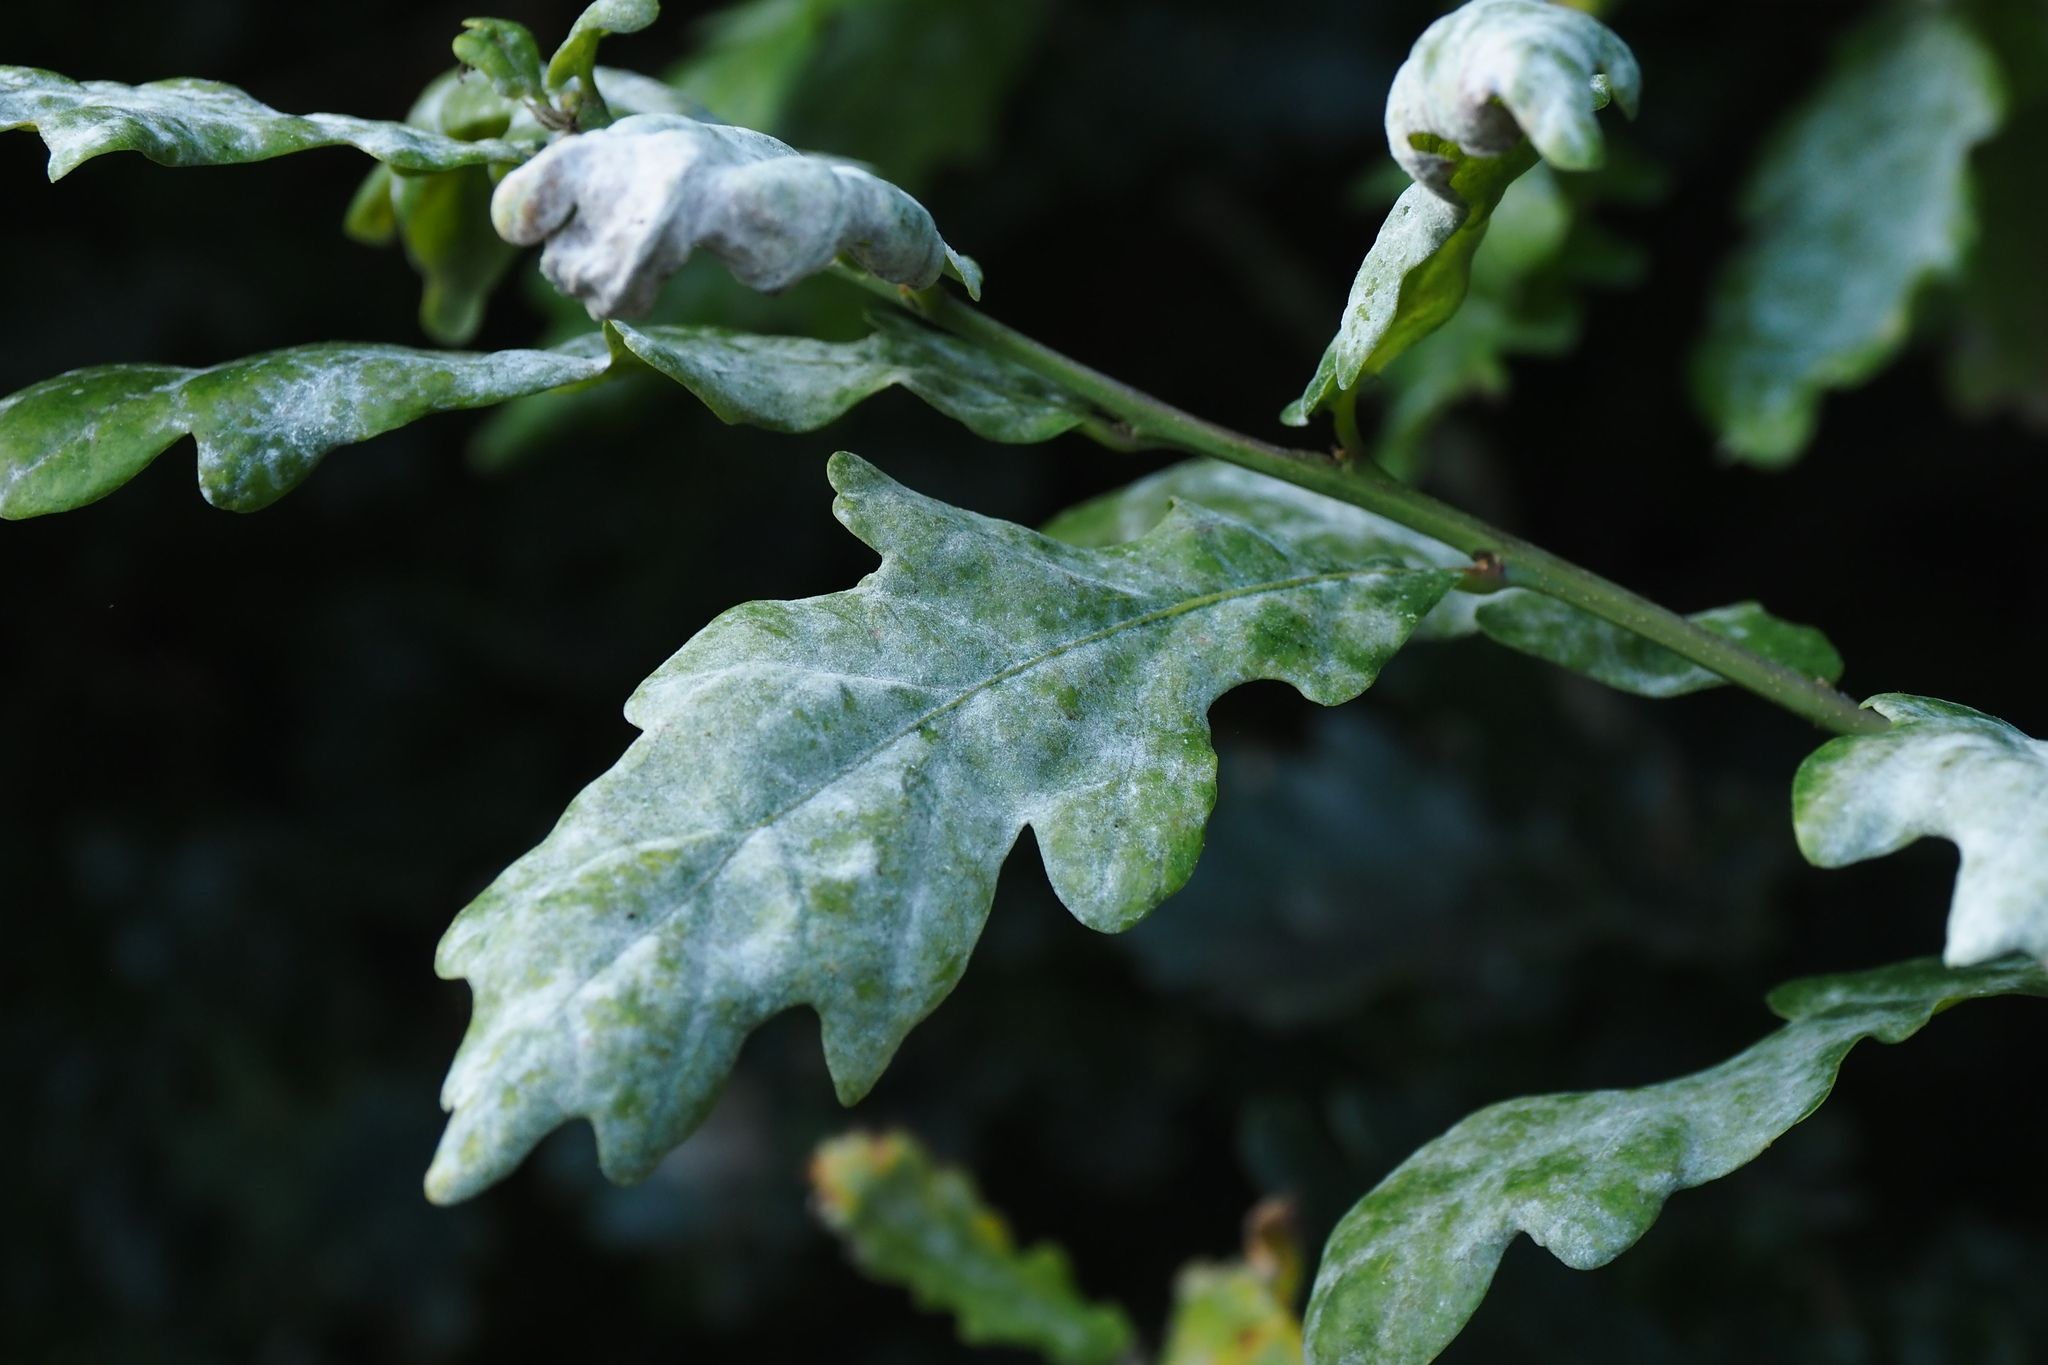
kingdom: Fungi
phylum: Ascomycota
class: Leotiomycetes
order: Helotiales
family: Erysiphaceae
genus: Erysiphe
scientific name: Erysiphe alphitoides
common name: Oak mildew
